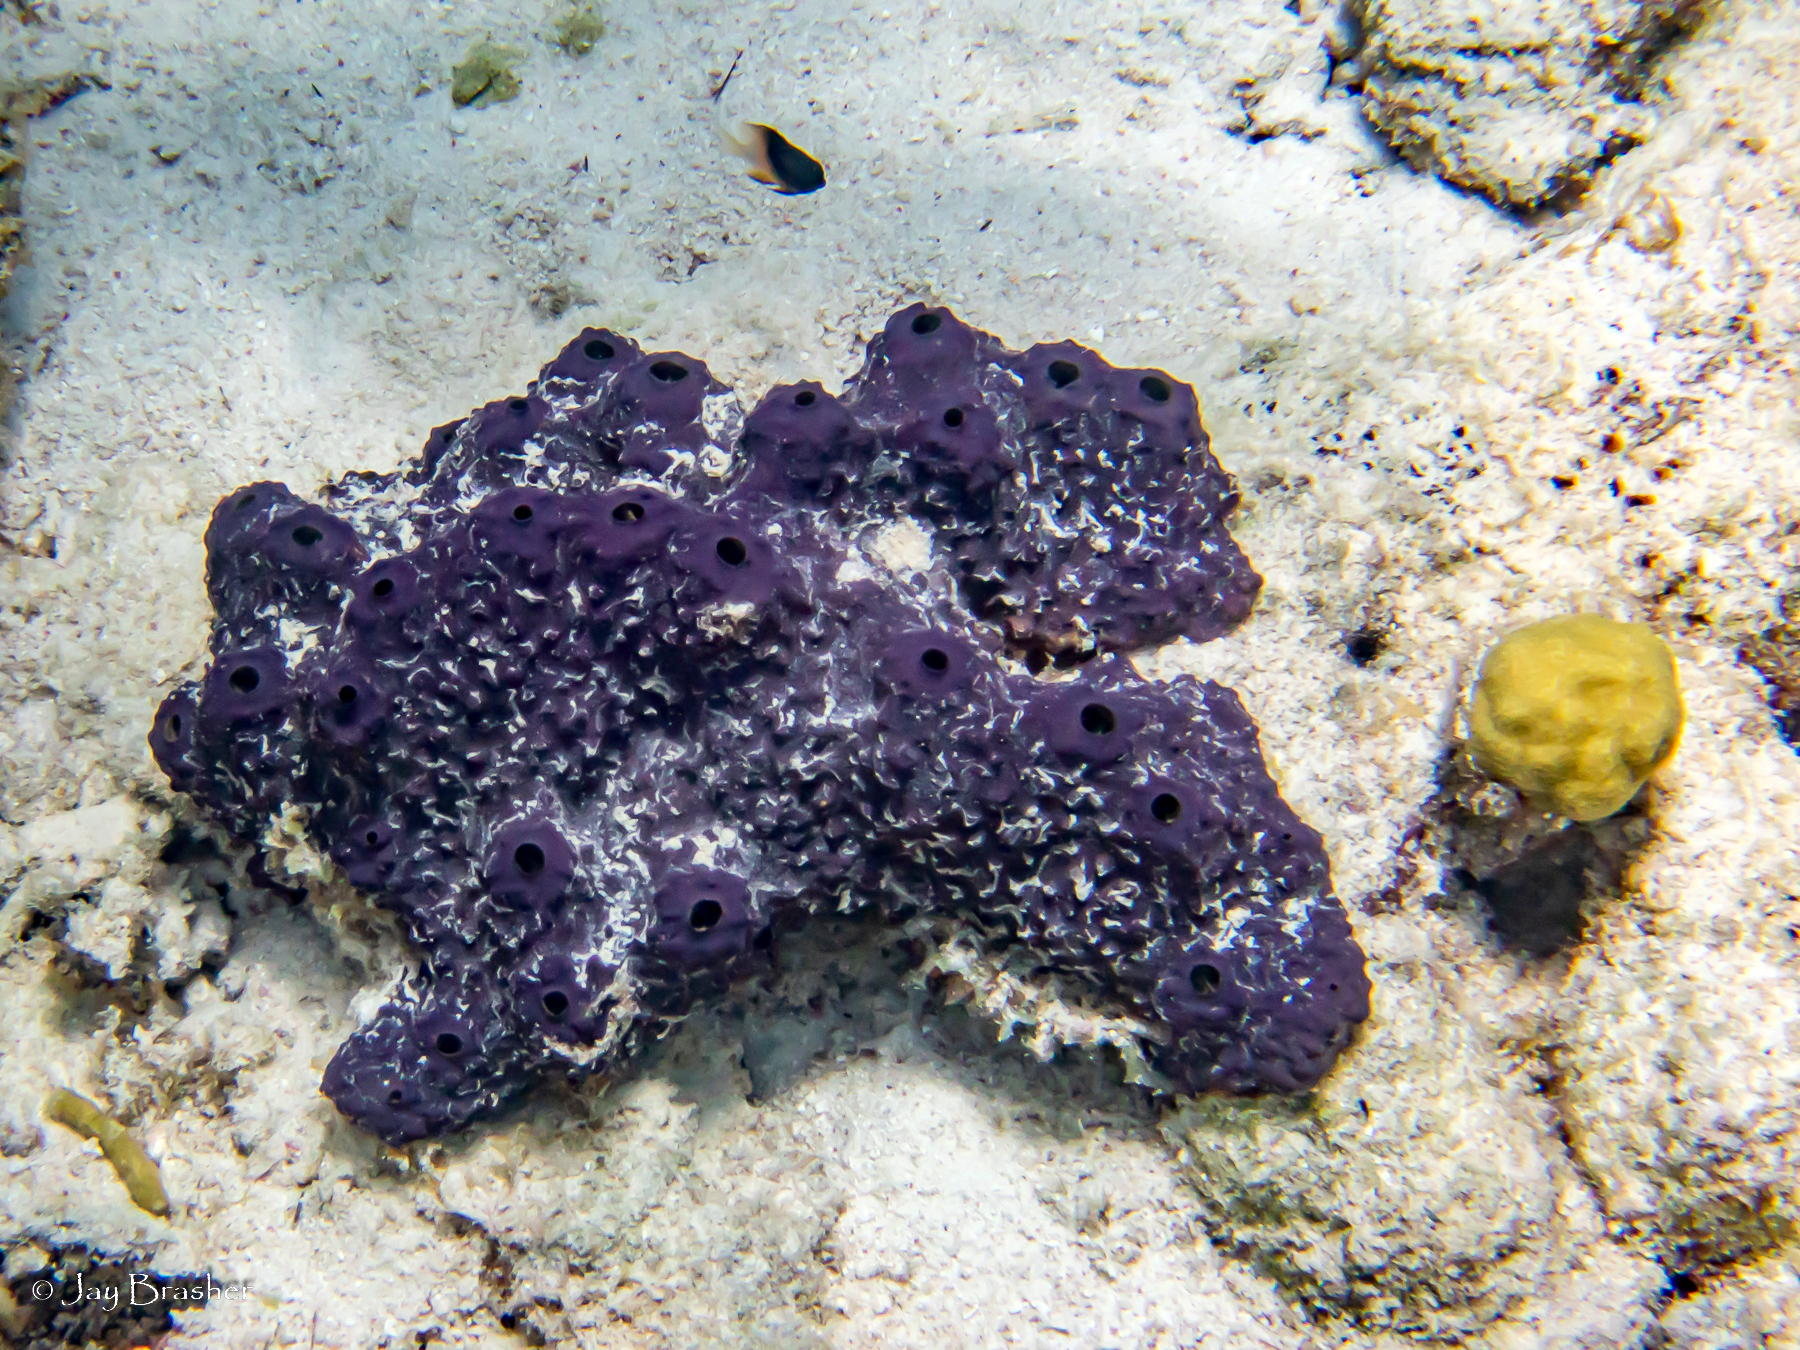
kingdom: Animalia
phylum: Porifera
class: Demospongiae
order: Verongiida
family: Aplysinidae
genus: Aiolochroia
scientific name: Aiolochroia crassa
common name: Branching tube sponge
